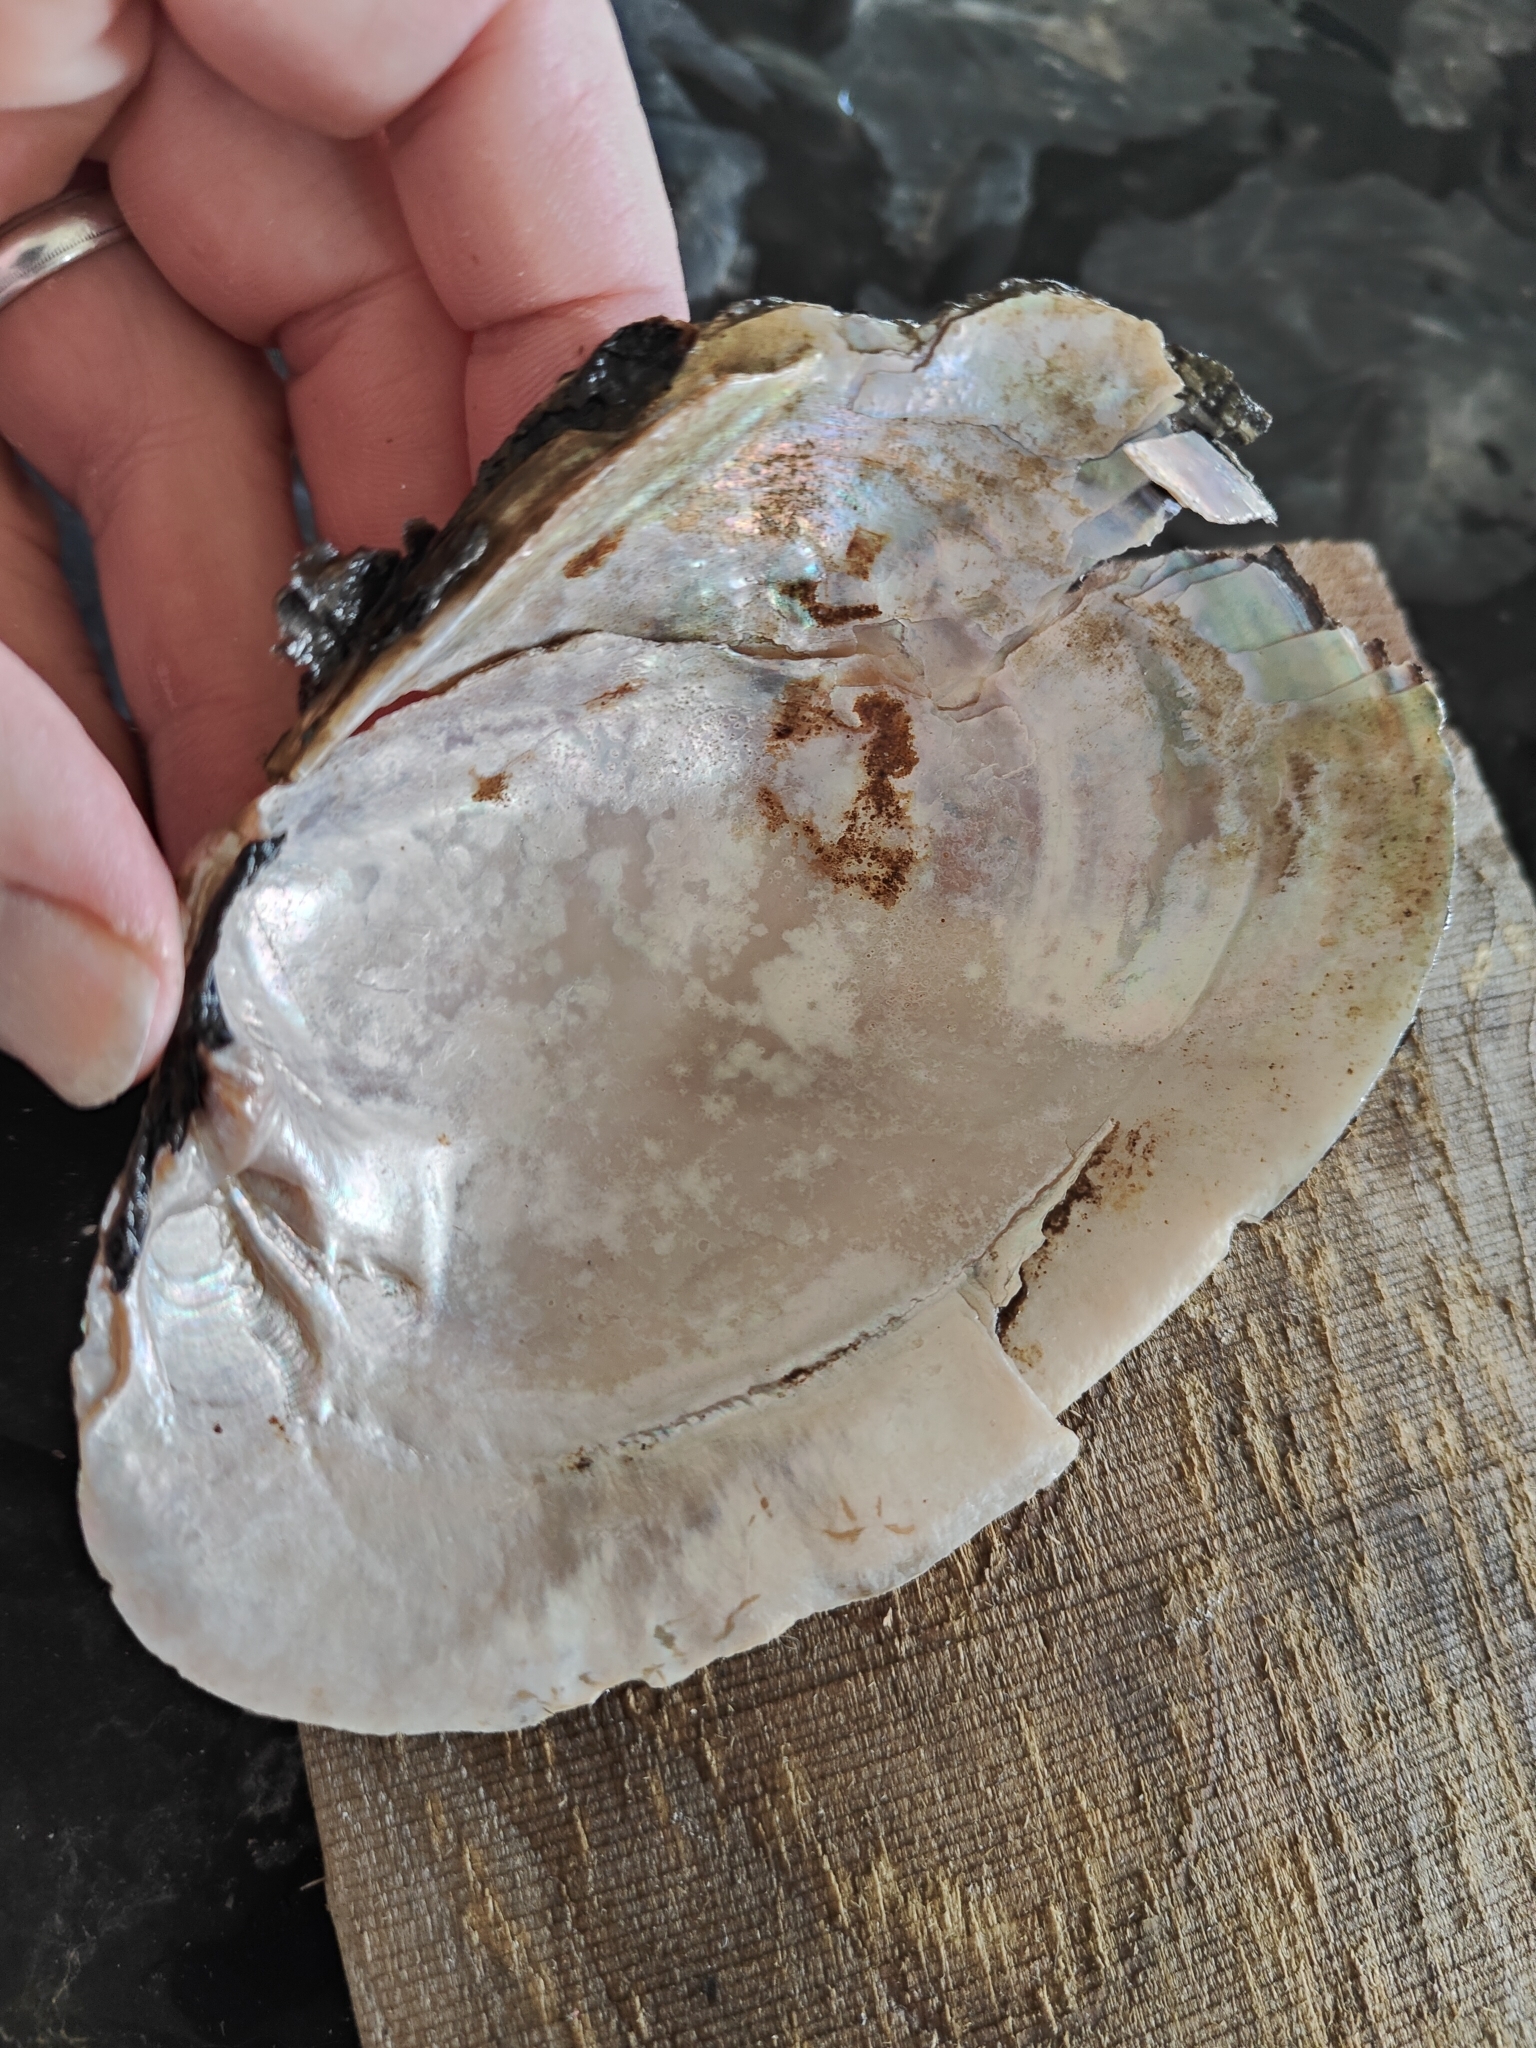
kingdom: Animalia
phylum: Mollusca
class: Bivalvia
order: Unionida
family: Unionidae
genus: Potamilus
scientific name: Potamilus alatus
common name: Pink heelsplitter
